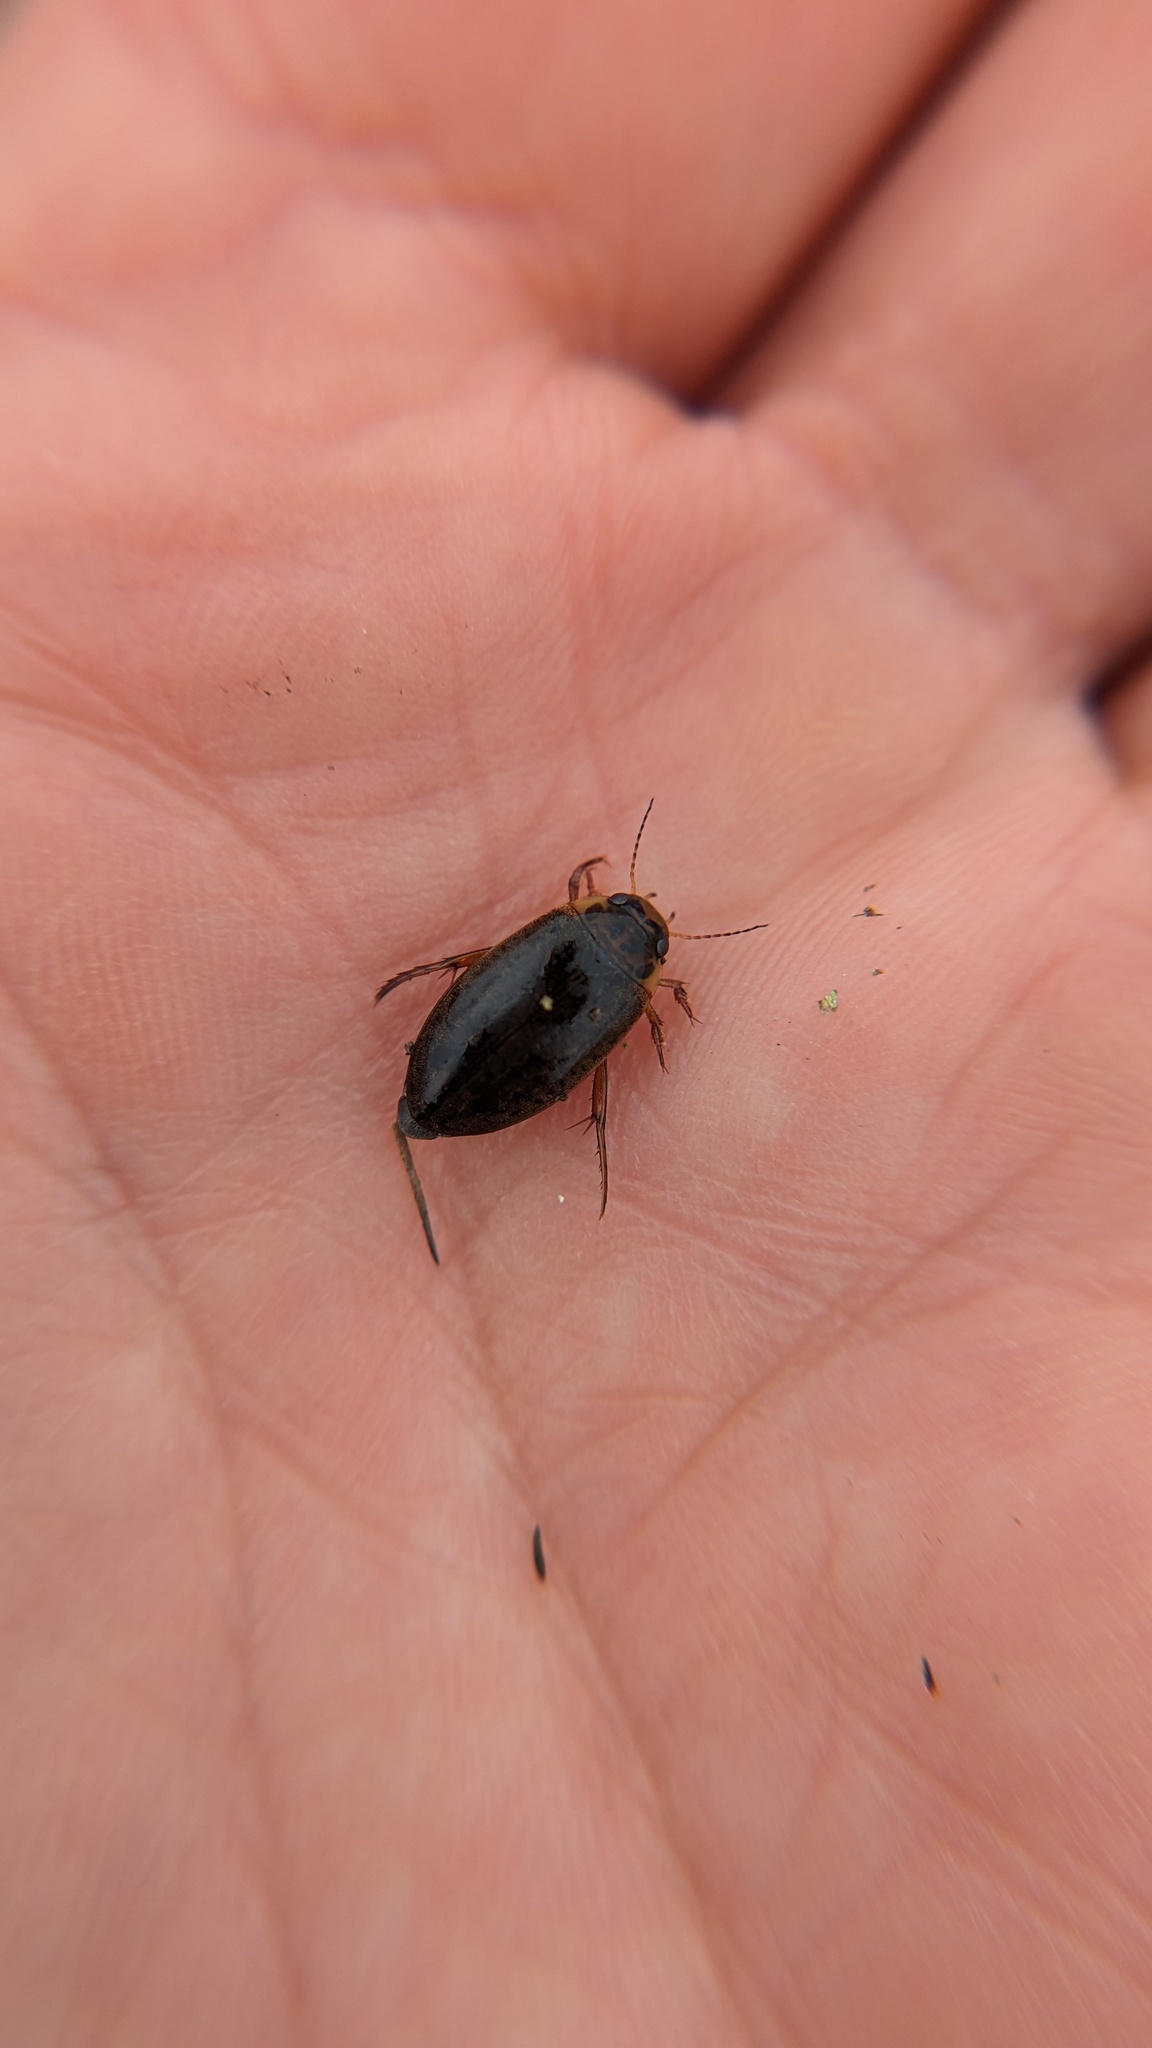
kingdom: Animalia
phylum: Arthropoda
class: Insecta
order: Coleoptera
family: Dytiscidae
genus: Rhantus
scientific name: Rhantus binotatus
